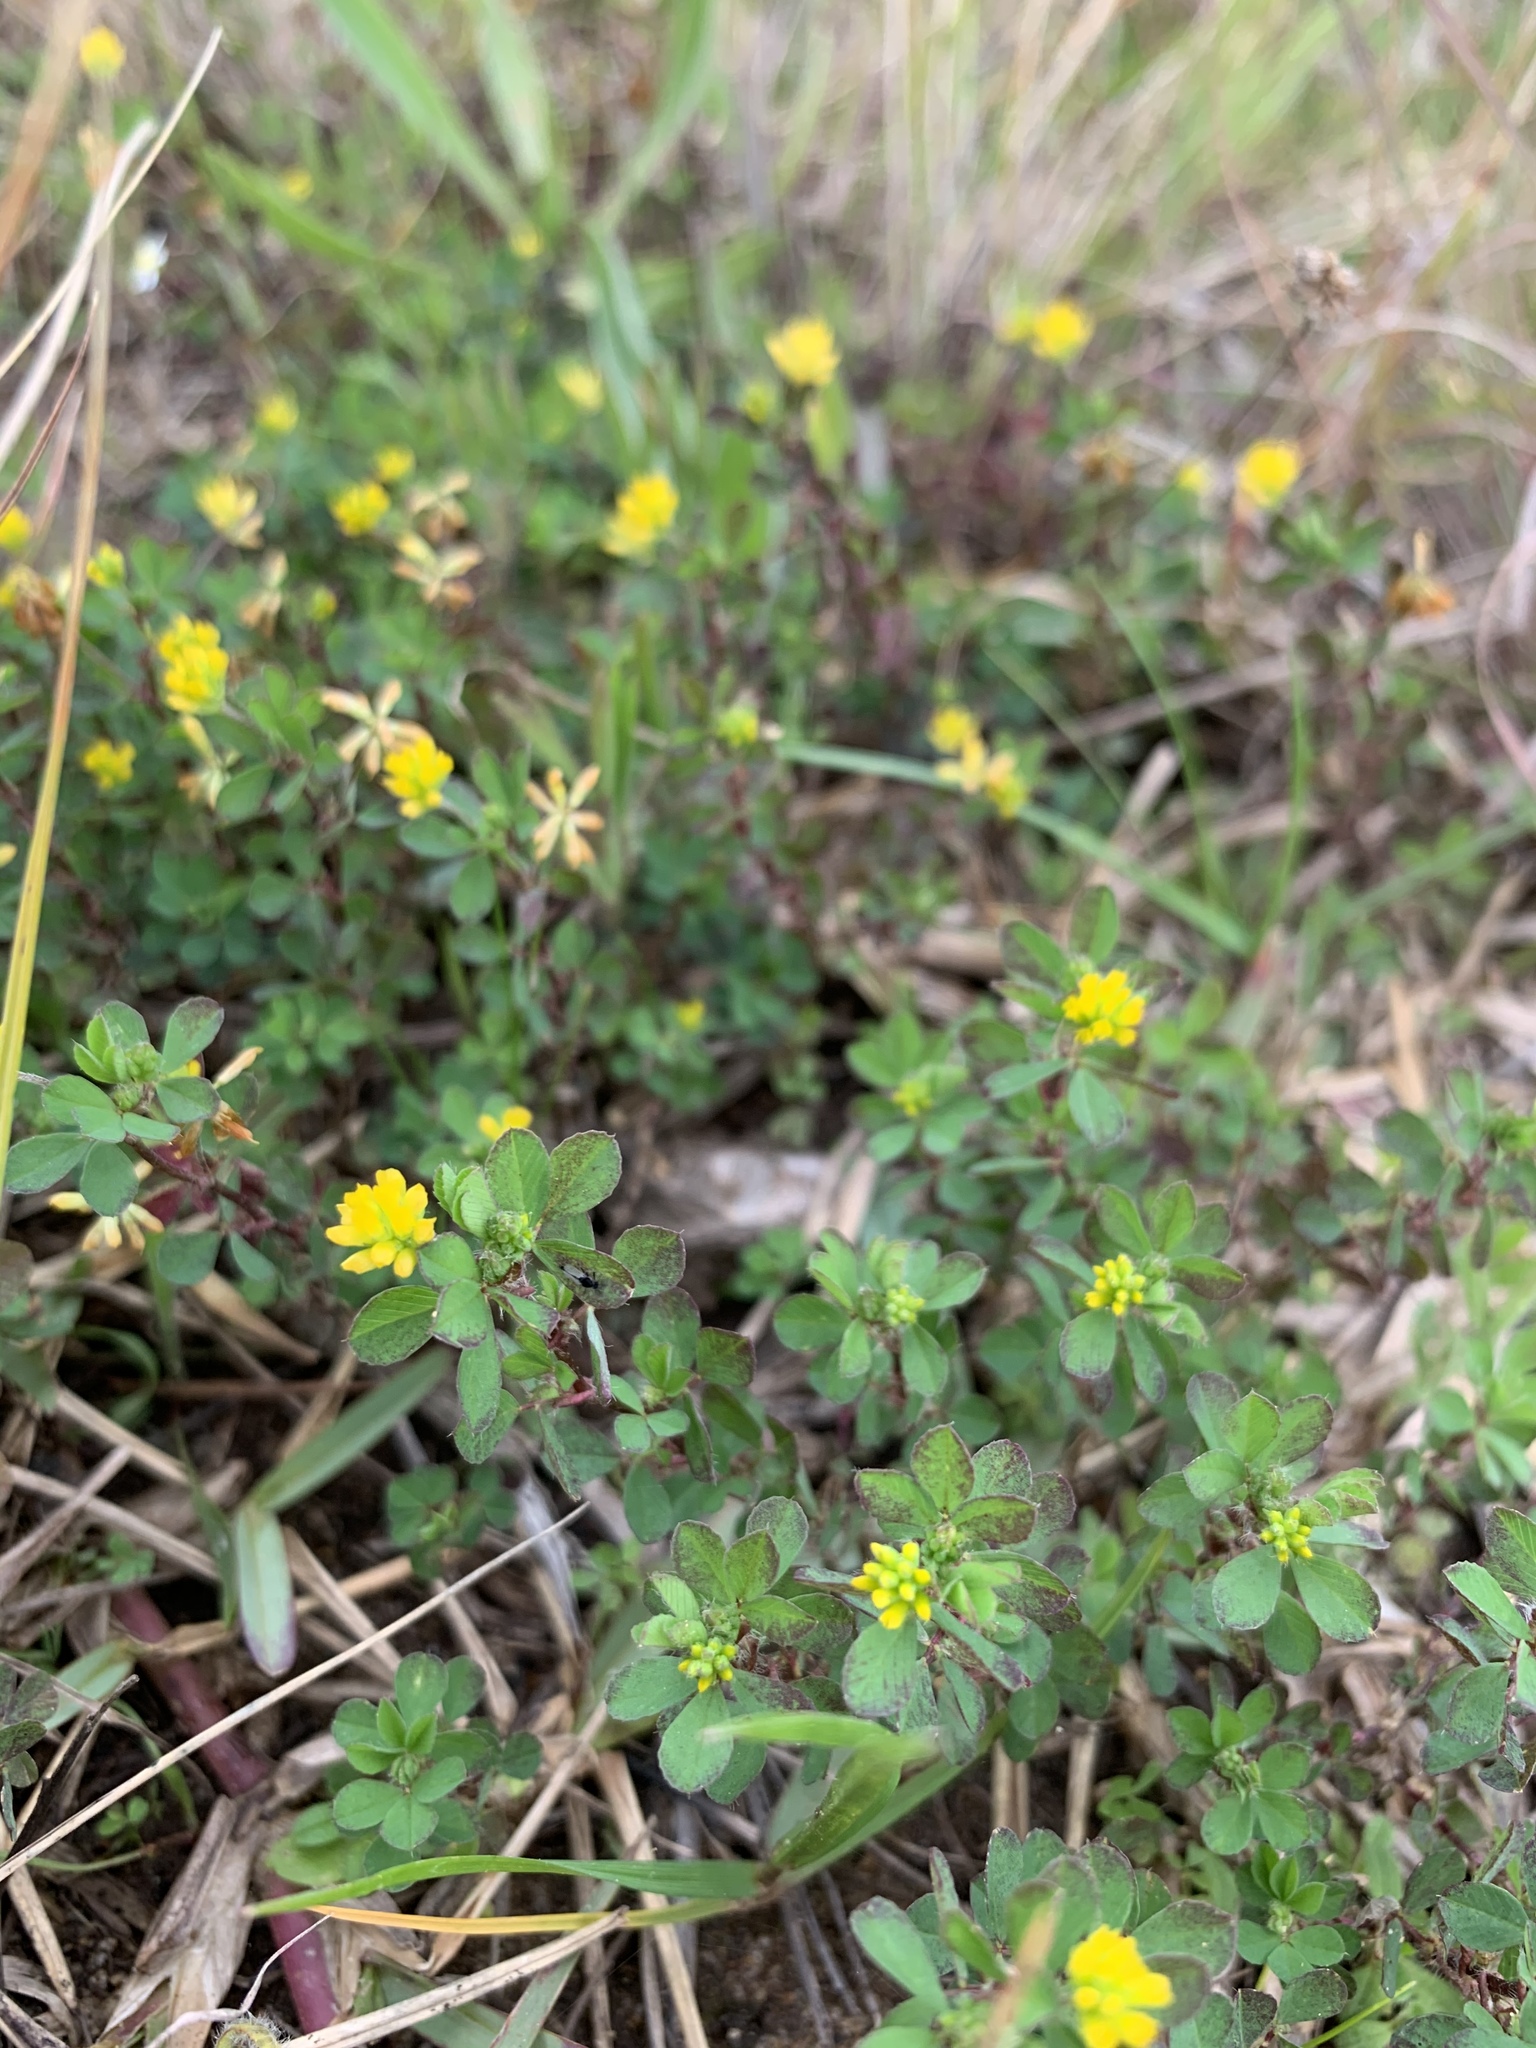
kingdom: Plantae
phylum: Tracheophyta
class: Magnoliopsida
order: Fabales
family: Fabaceae
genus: Trifolium
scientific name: Trifolium dubium
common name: Suckling clover
